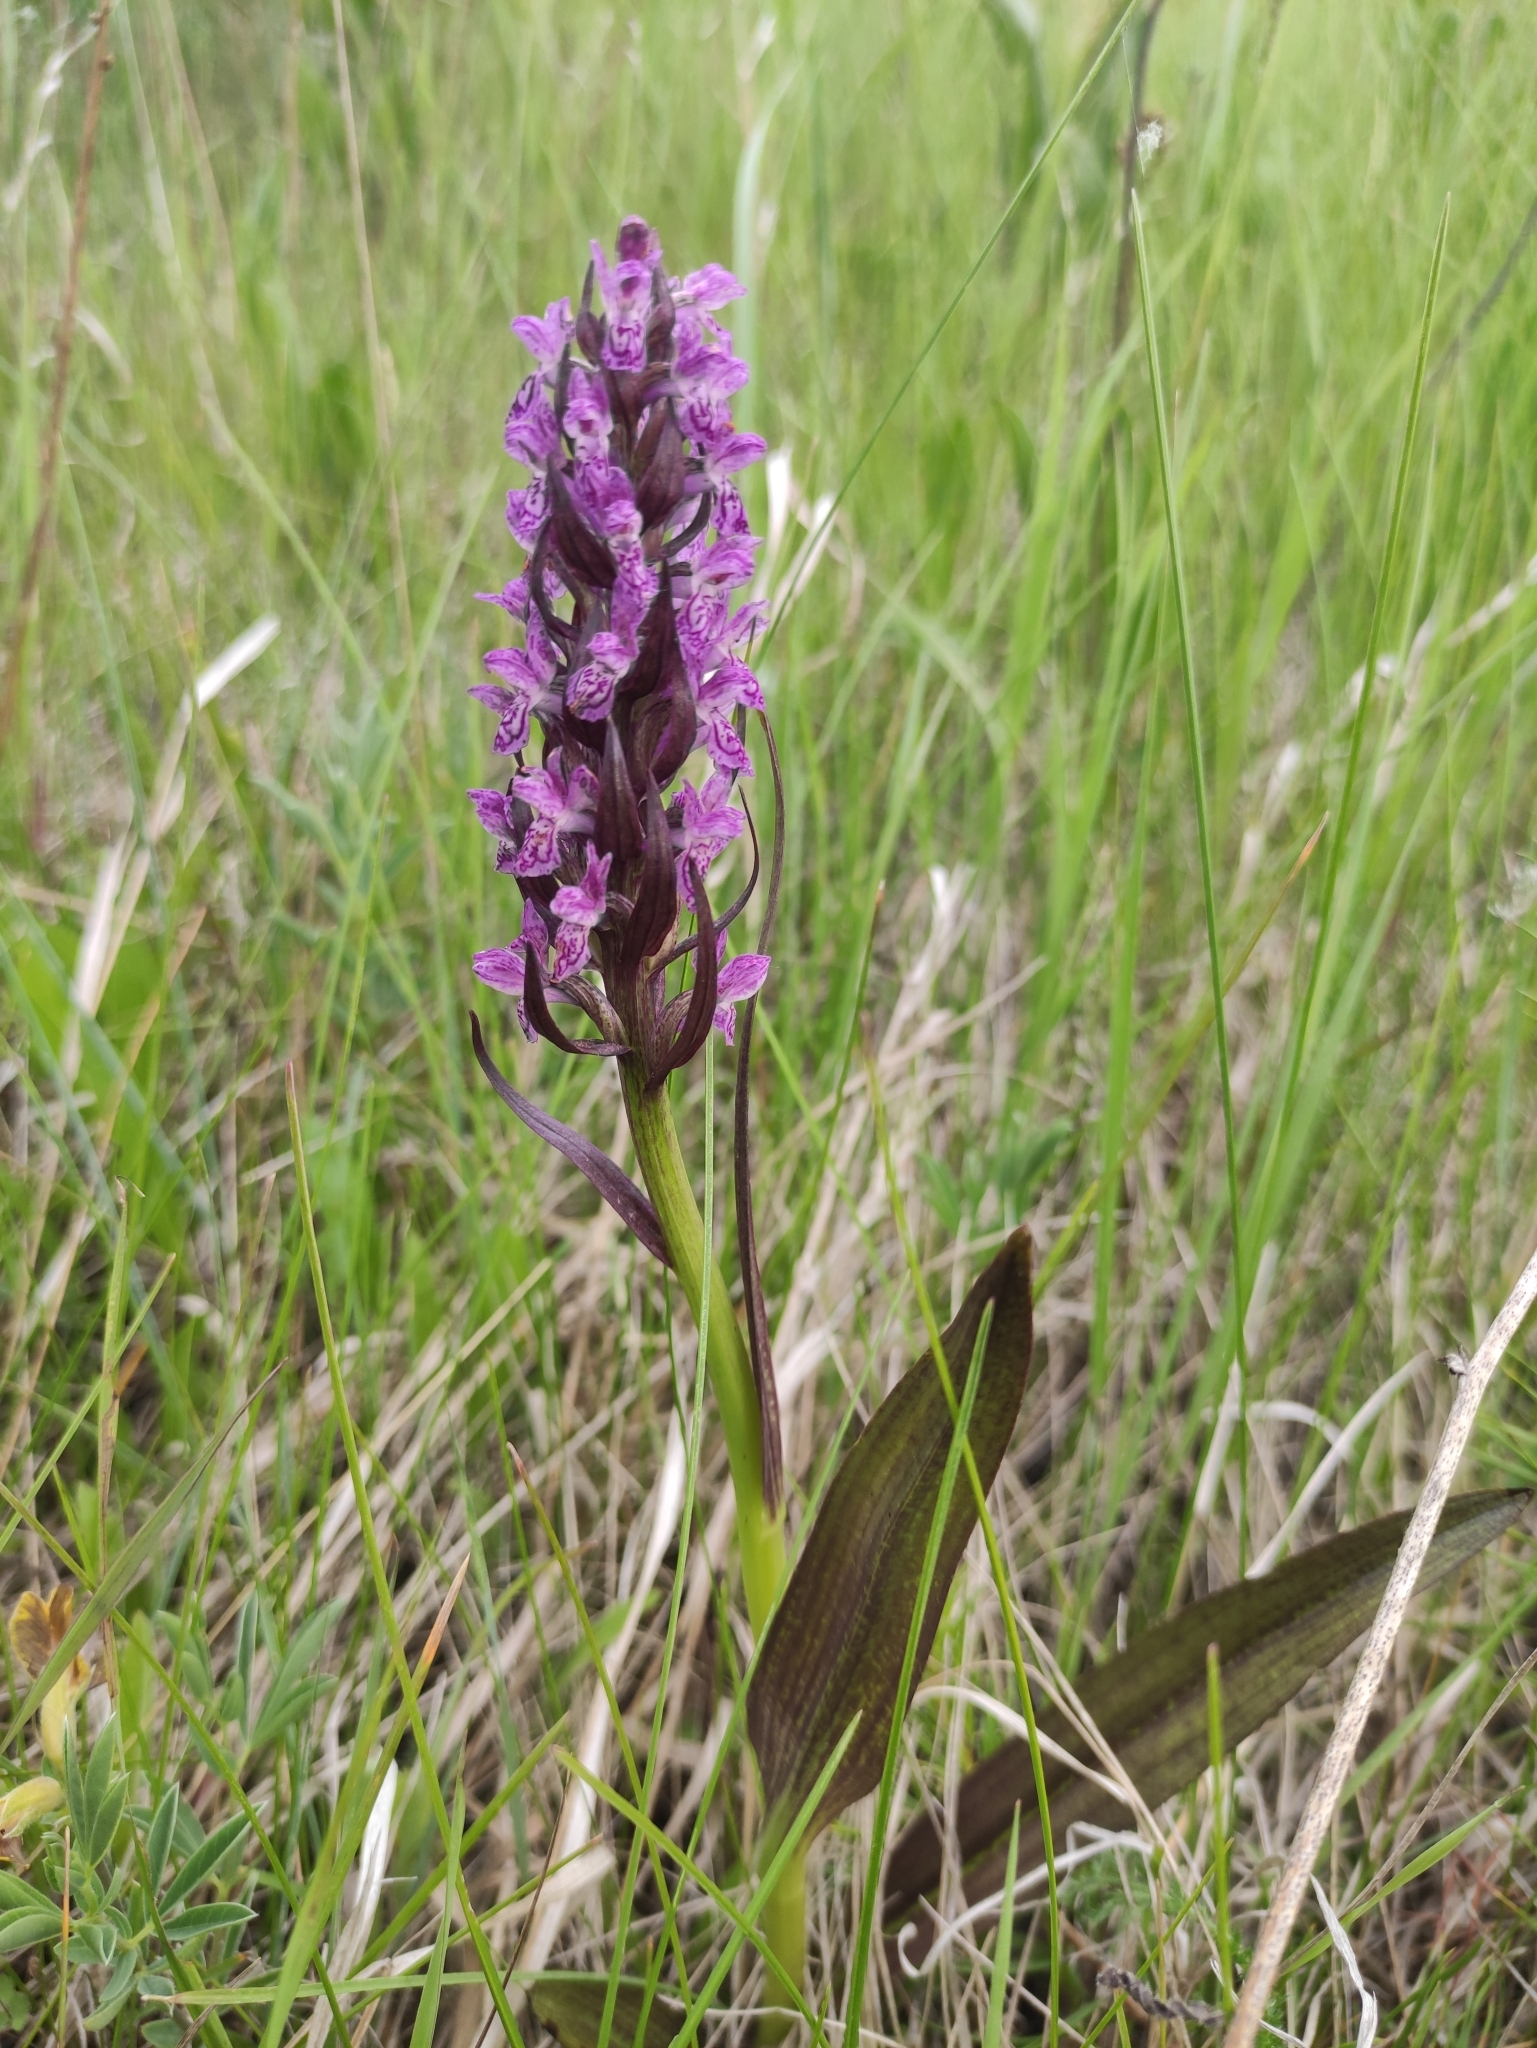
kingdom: Plantae
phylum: Tracheophyta
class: Liliopsida
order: Asparagales
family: Orchidaceae
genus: Dactylorhiza
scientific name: Dactylorhiza incarnata
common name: Early marsh-orchid
